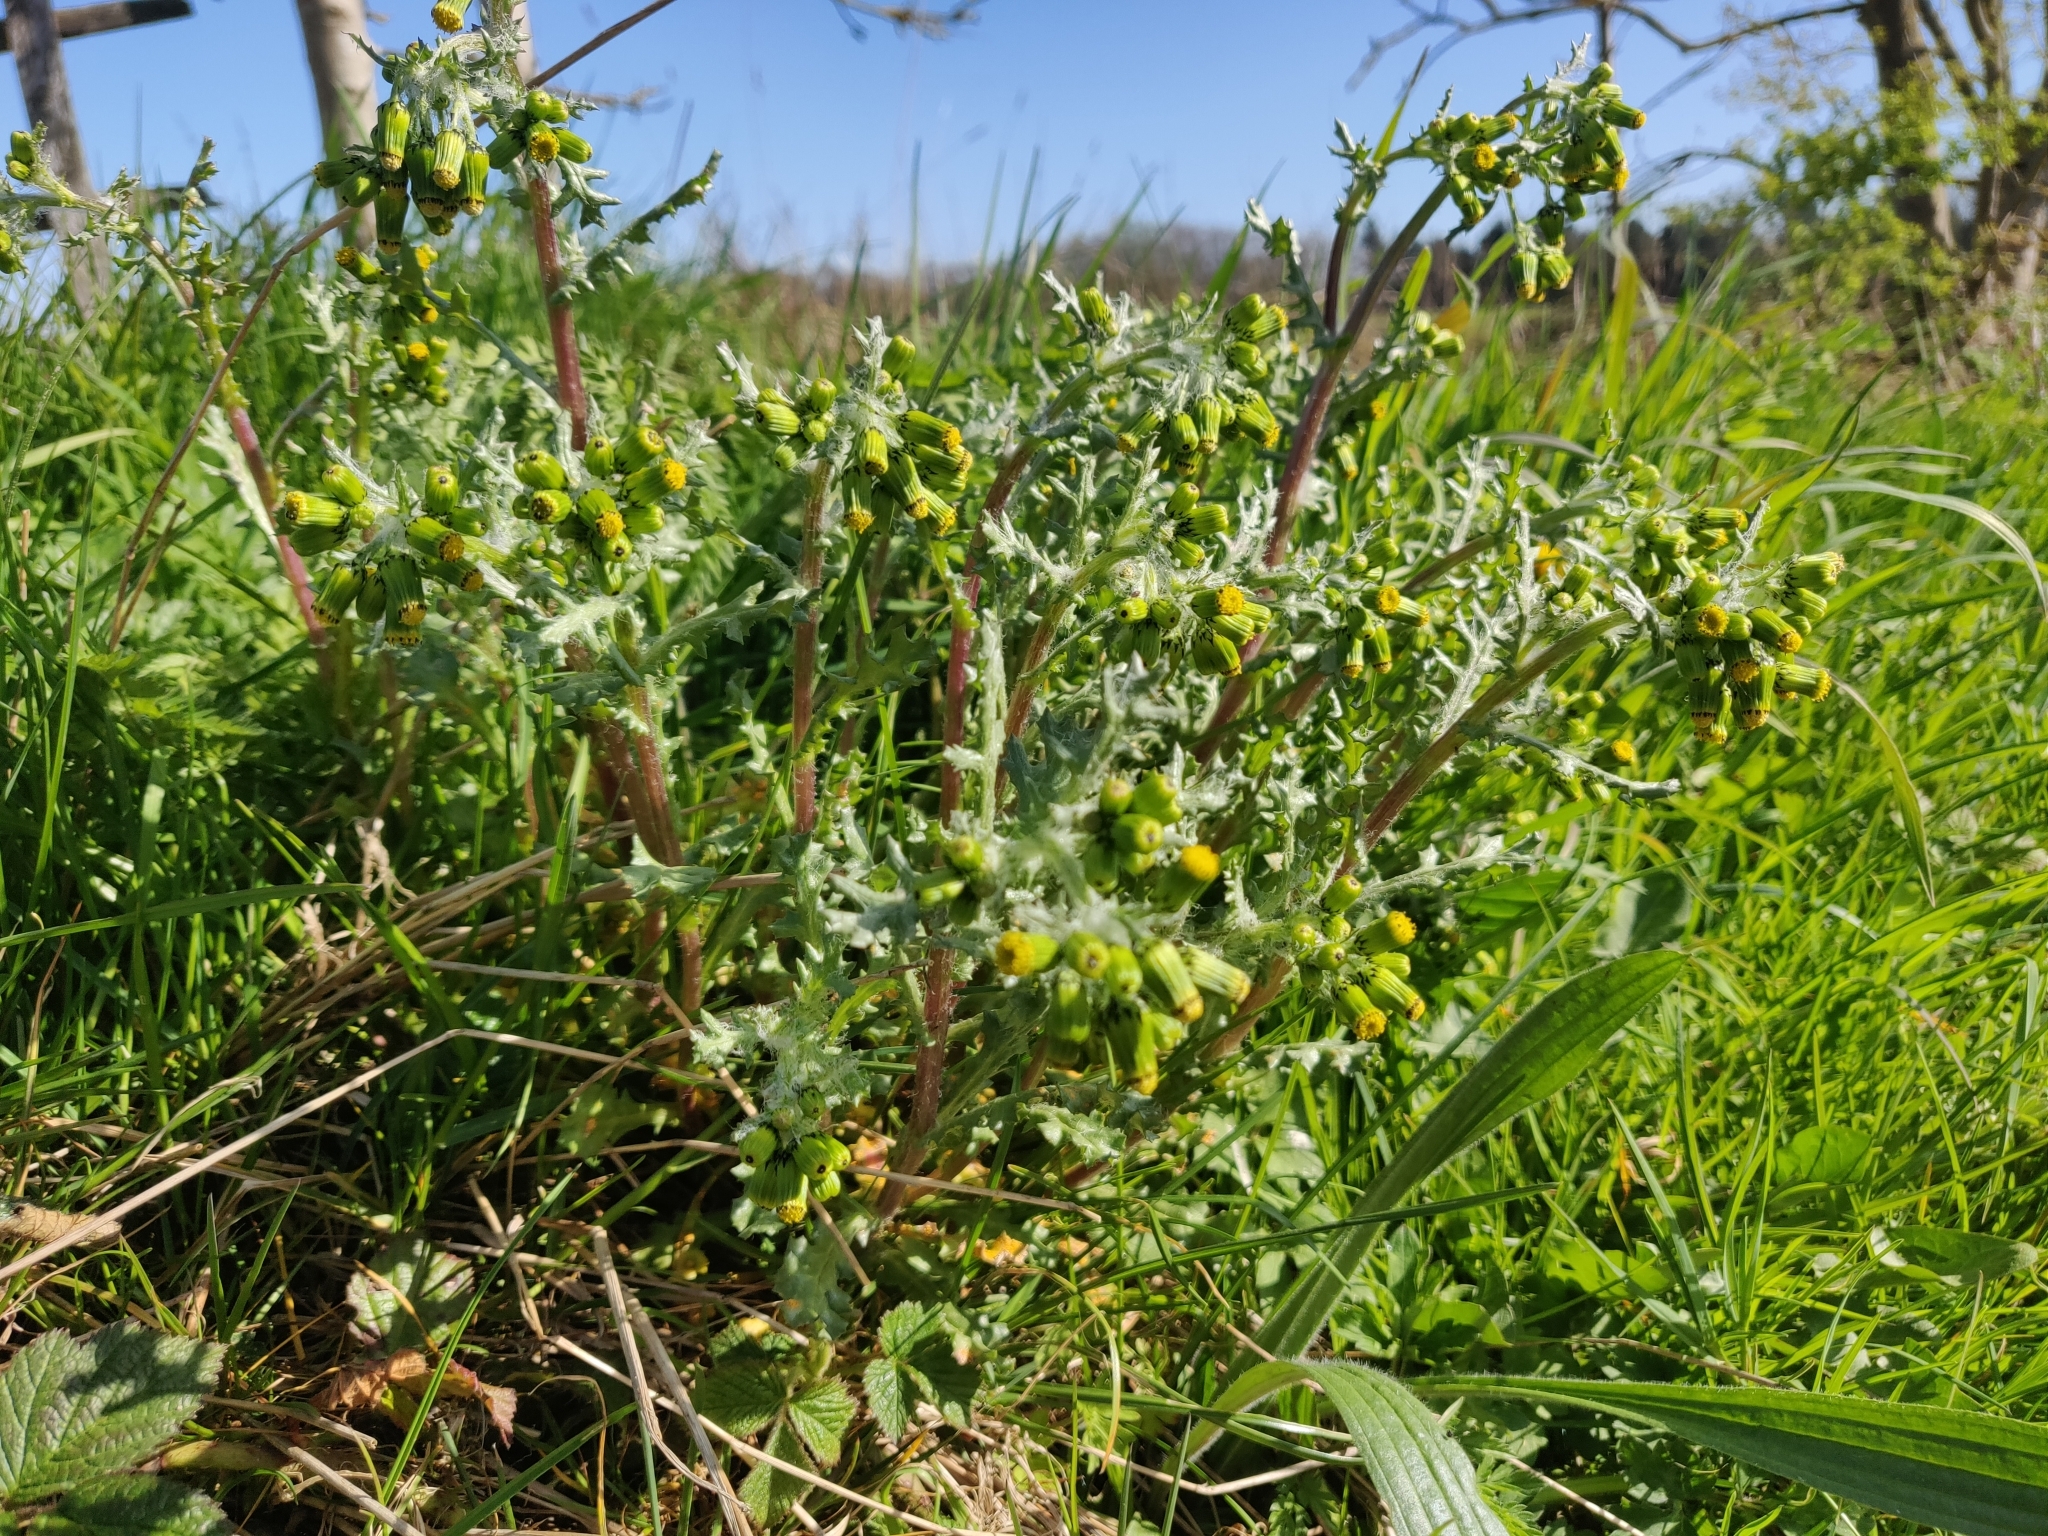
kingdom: Plantae
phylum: Tracheophyta
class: Magnoliopsida
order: Asterales
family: Asteraceae
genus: Senecio
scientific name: Senecio vulgaris
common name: Old-man-in-the-spring
